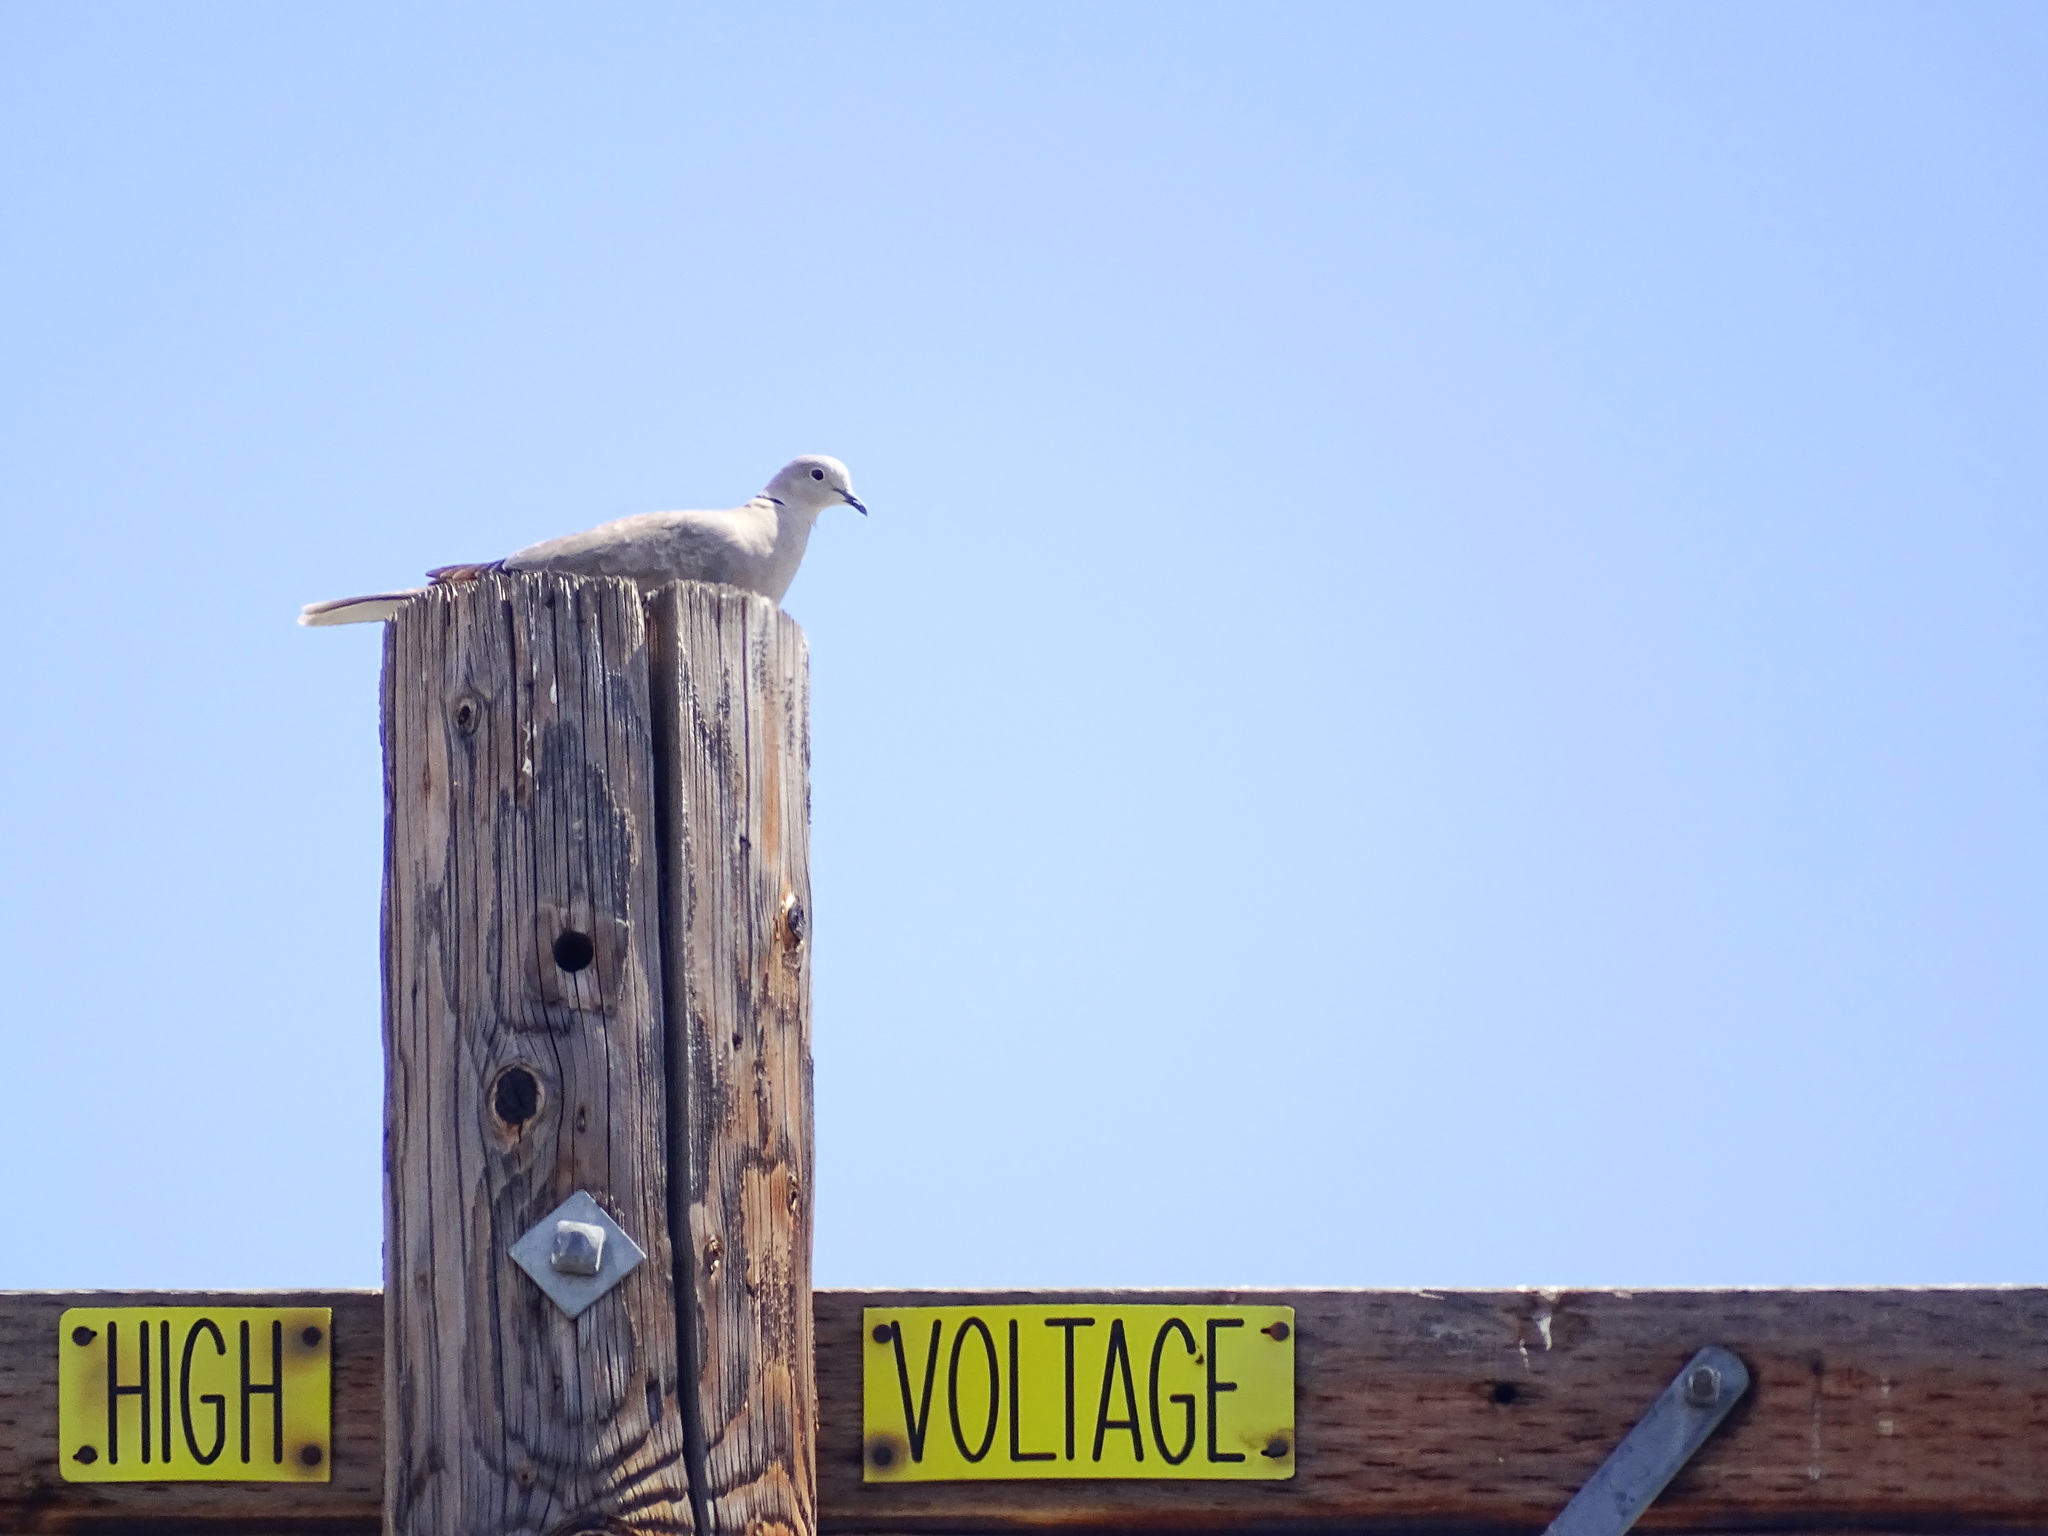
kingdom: Animalia
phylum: Chordata
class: Aves
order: Columbiformes
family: Columbidae
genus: Streptopelia
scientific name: Streptopelia decaocto
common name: Eurasian collared dove
